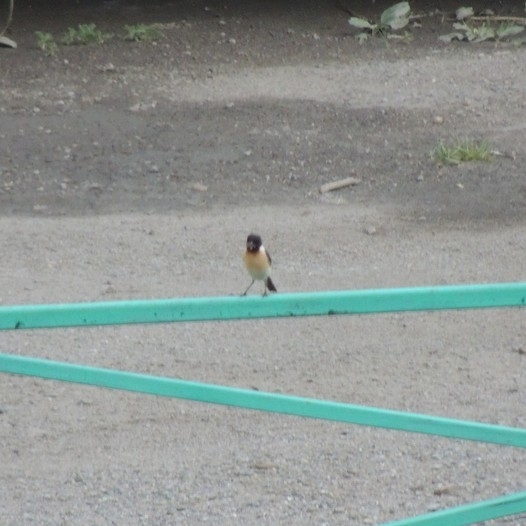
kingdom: Animalia
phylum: Chordata
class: Aves
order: Passeriformes
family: Muscicapidae
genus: Saxicola
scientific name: Saxicola maurus
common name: Siberian stonechat
